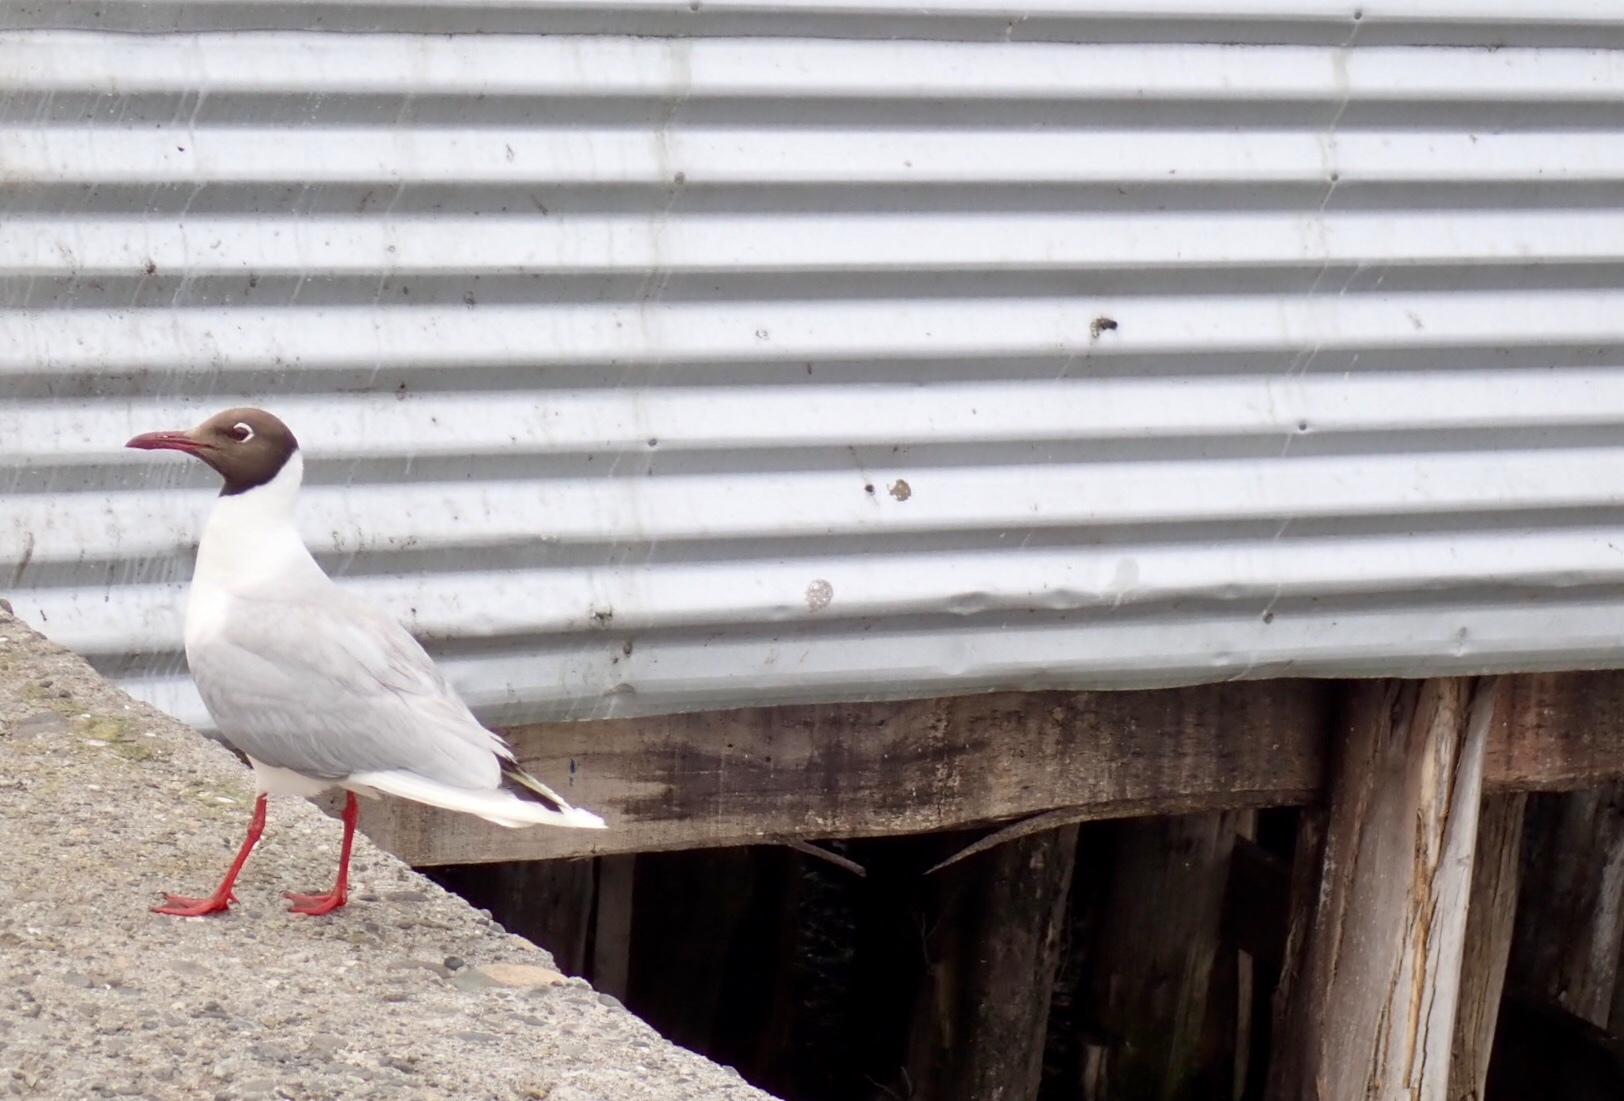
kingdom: Animalia
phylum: Chordata
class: Aves
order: Charadriiformes
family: Laridae
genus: Chroicocephalus
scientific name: Chroicocephalus maculipennis
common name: Brown-hooded gull
